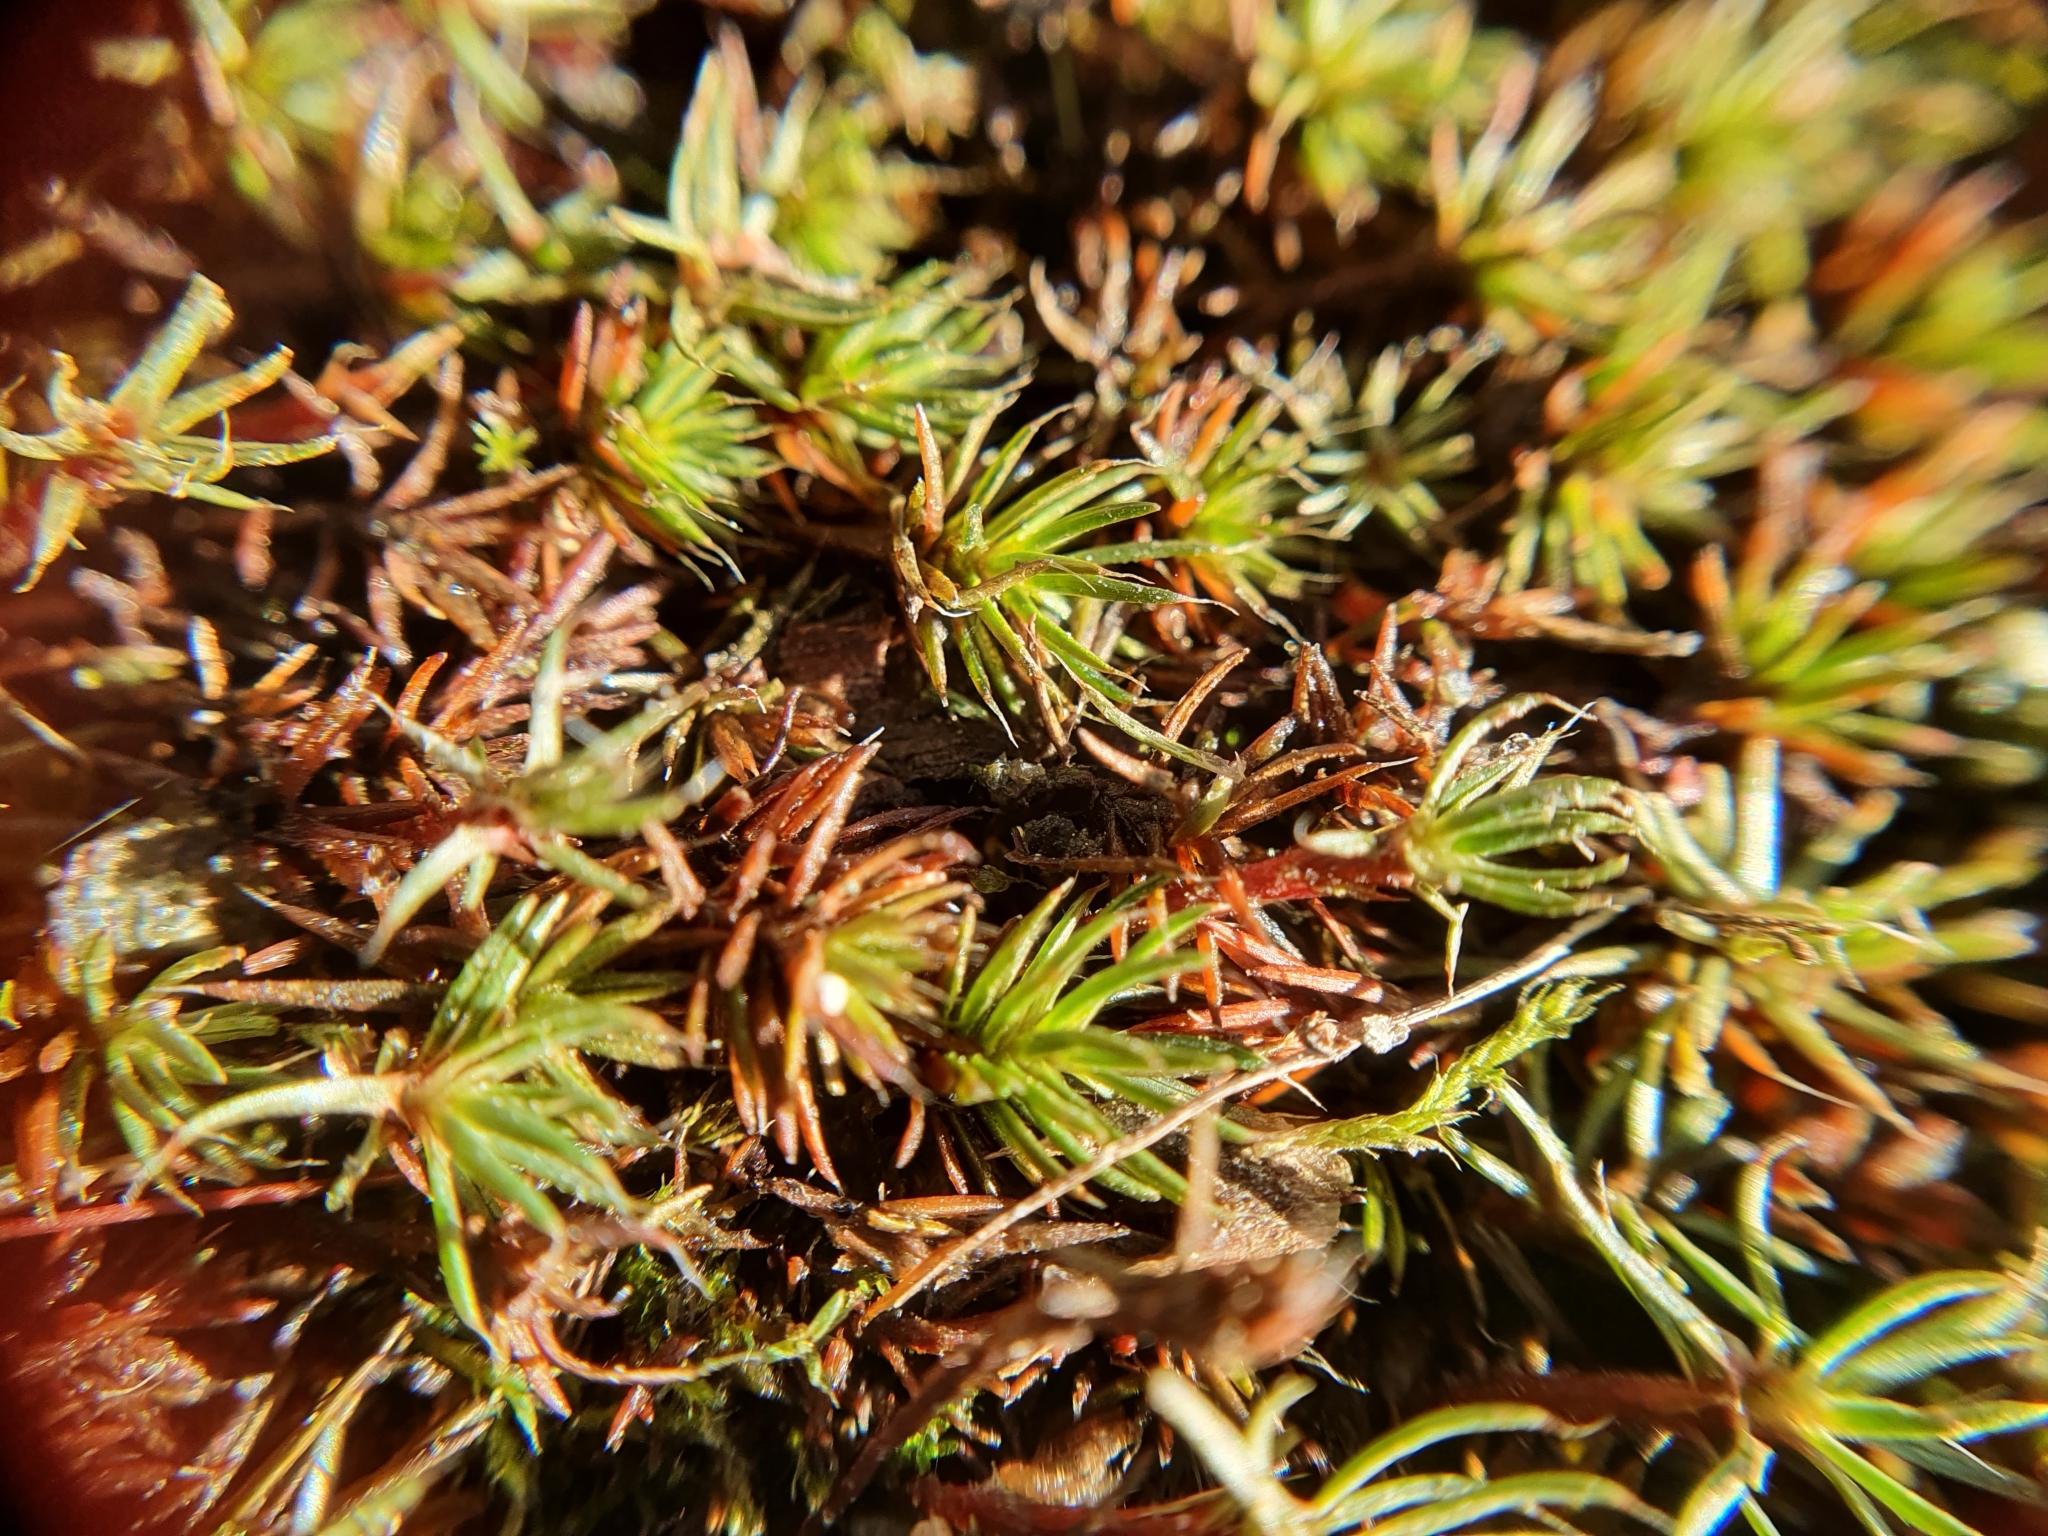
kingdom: Plantae
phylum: Bryophyta
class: Polytrichopsida
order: Polytrichales
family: Polytrichaceae
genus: Polytrichum
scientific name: Polytrichum piliferum
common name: Bristly haircap
